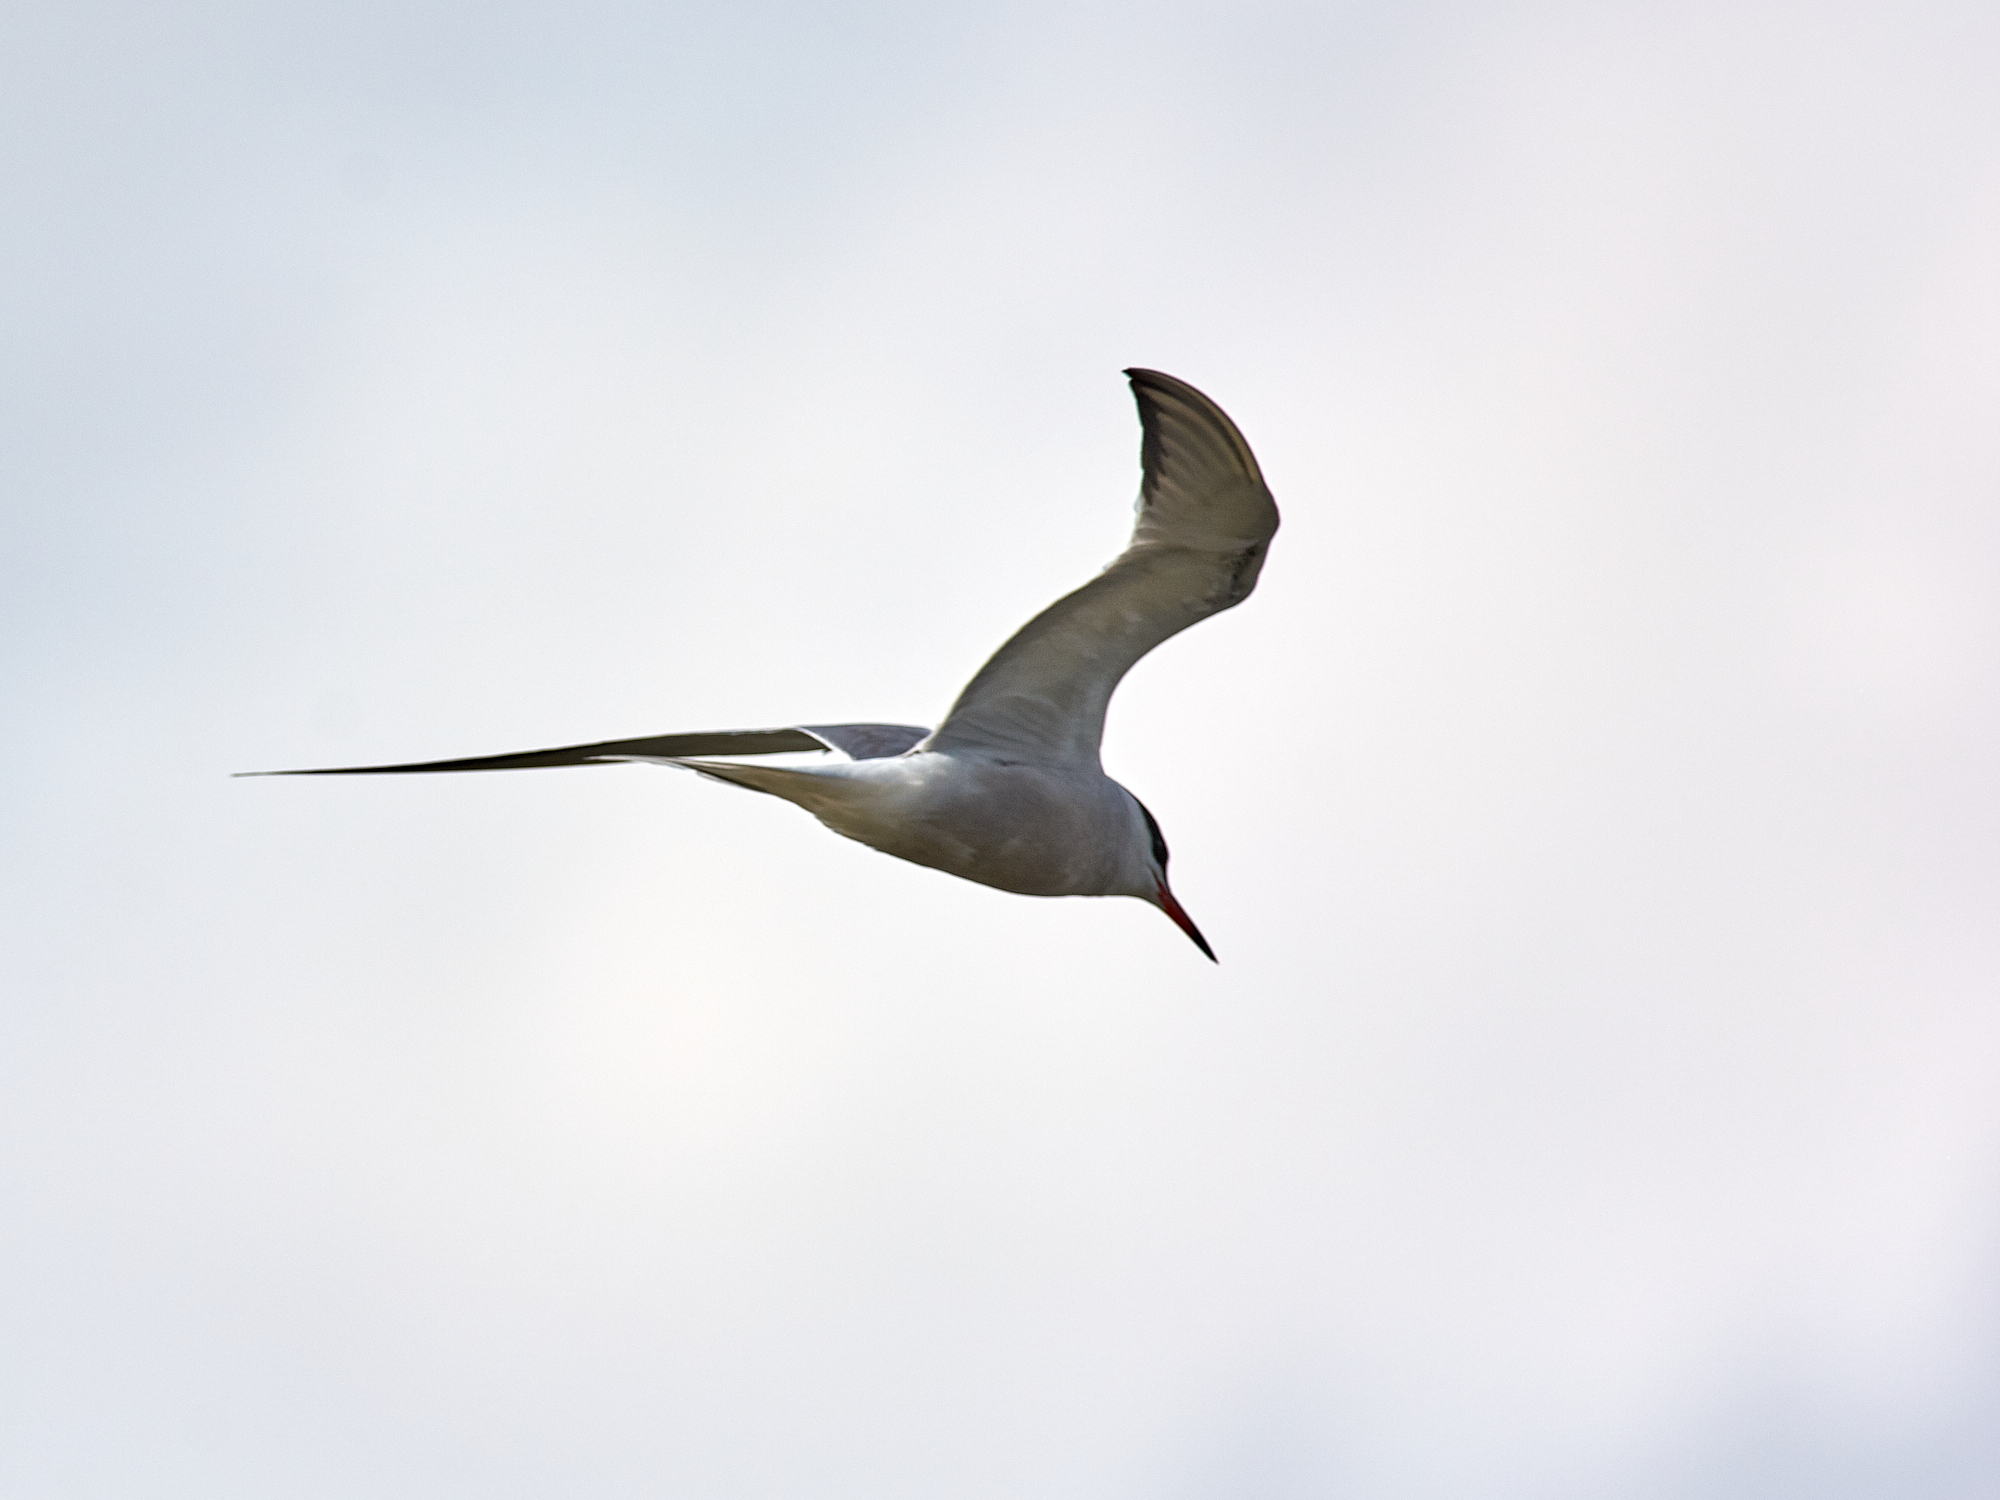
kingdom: Animalia
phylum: Chordata
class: Aves
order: Charadriiformes
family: Laridae
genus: Sterna
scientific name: Sterna hirundo
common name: Common tern
